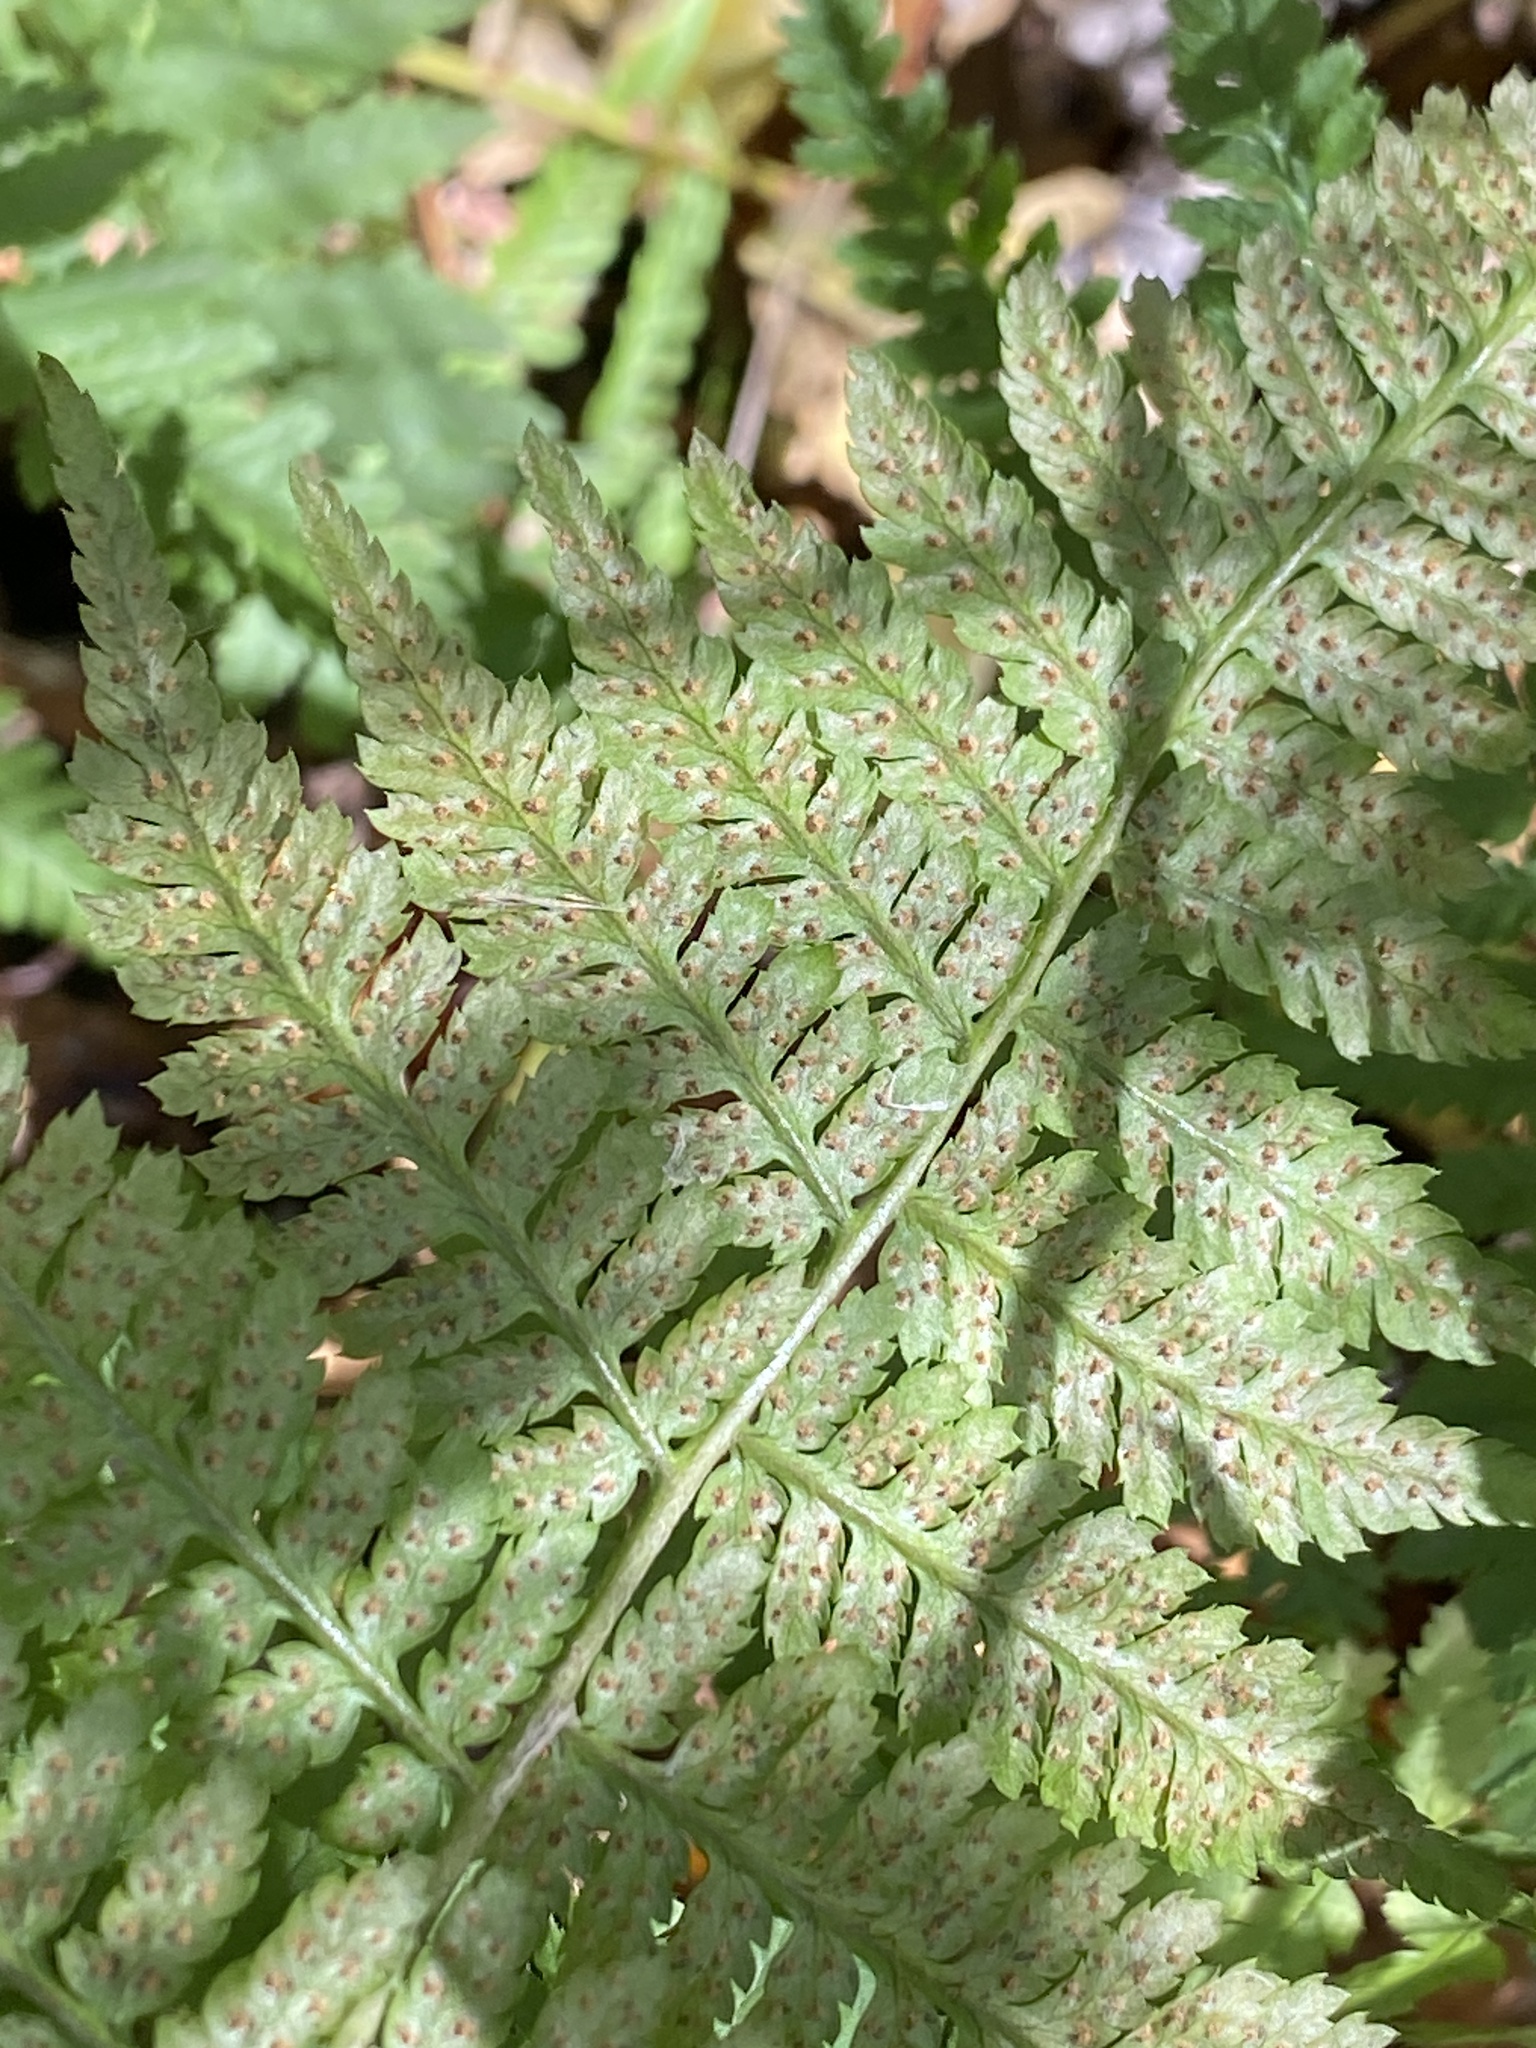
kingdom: Plantae
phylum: Tracheophyta
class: Polypodiopsida
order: Polypodiales
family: Dryopteridaceae
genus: Dryopteris
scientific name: Dryopteris intermedia
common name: Evergreen wood fern
